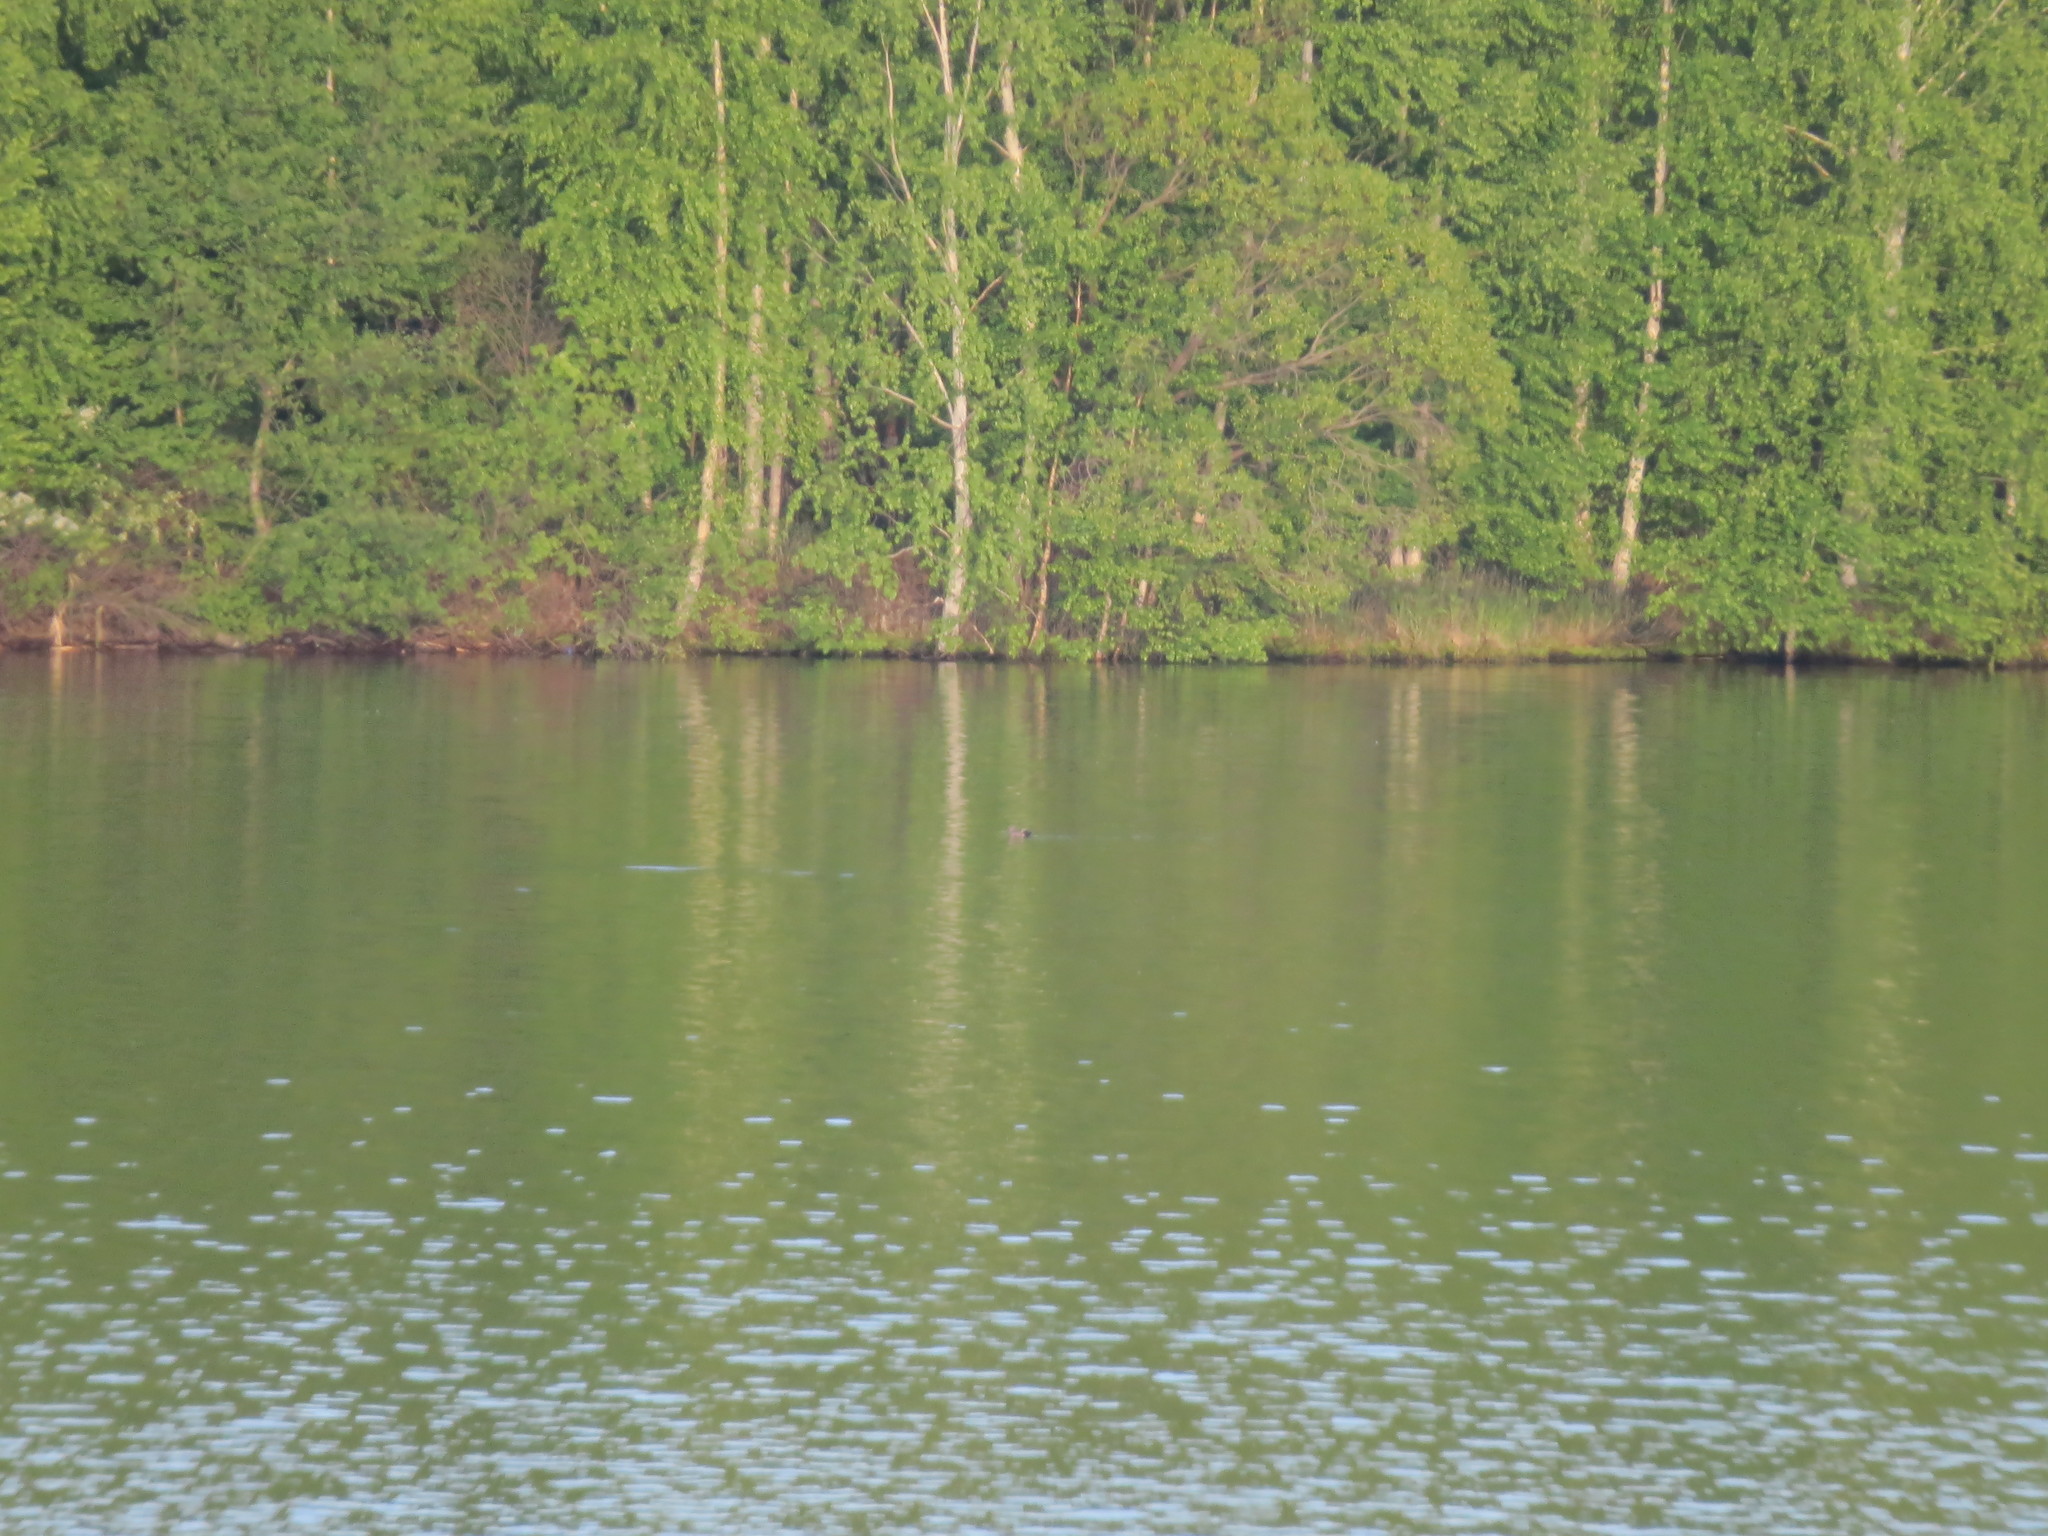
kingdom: Animalia
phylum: Chordata
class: Aves
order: Anseriformes
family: Anatidae
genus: Mareca
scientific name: Mareca strepera
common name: Gadwall
